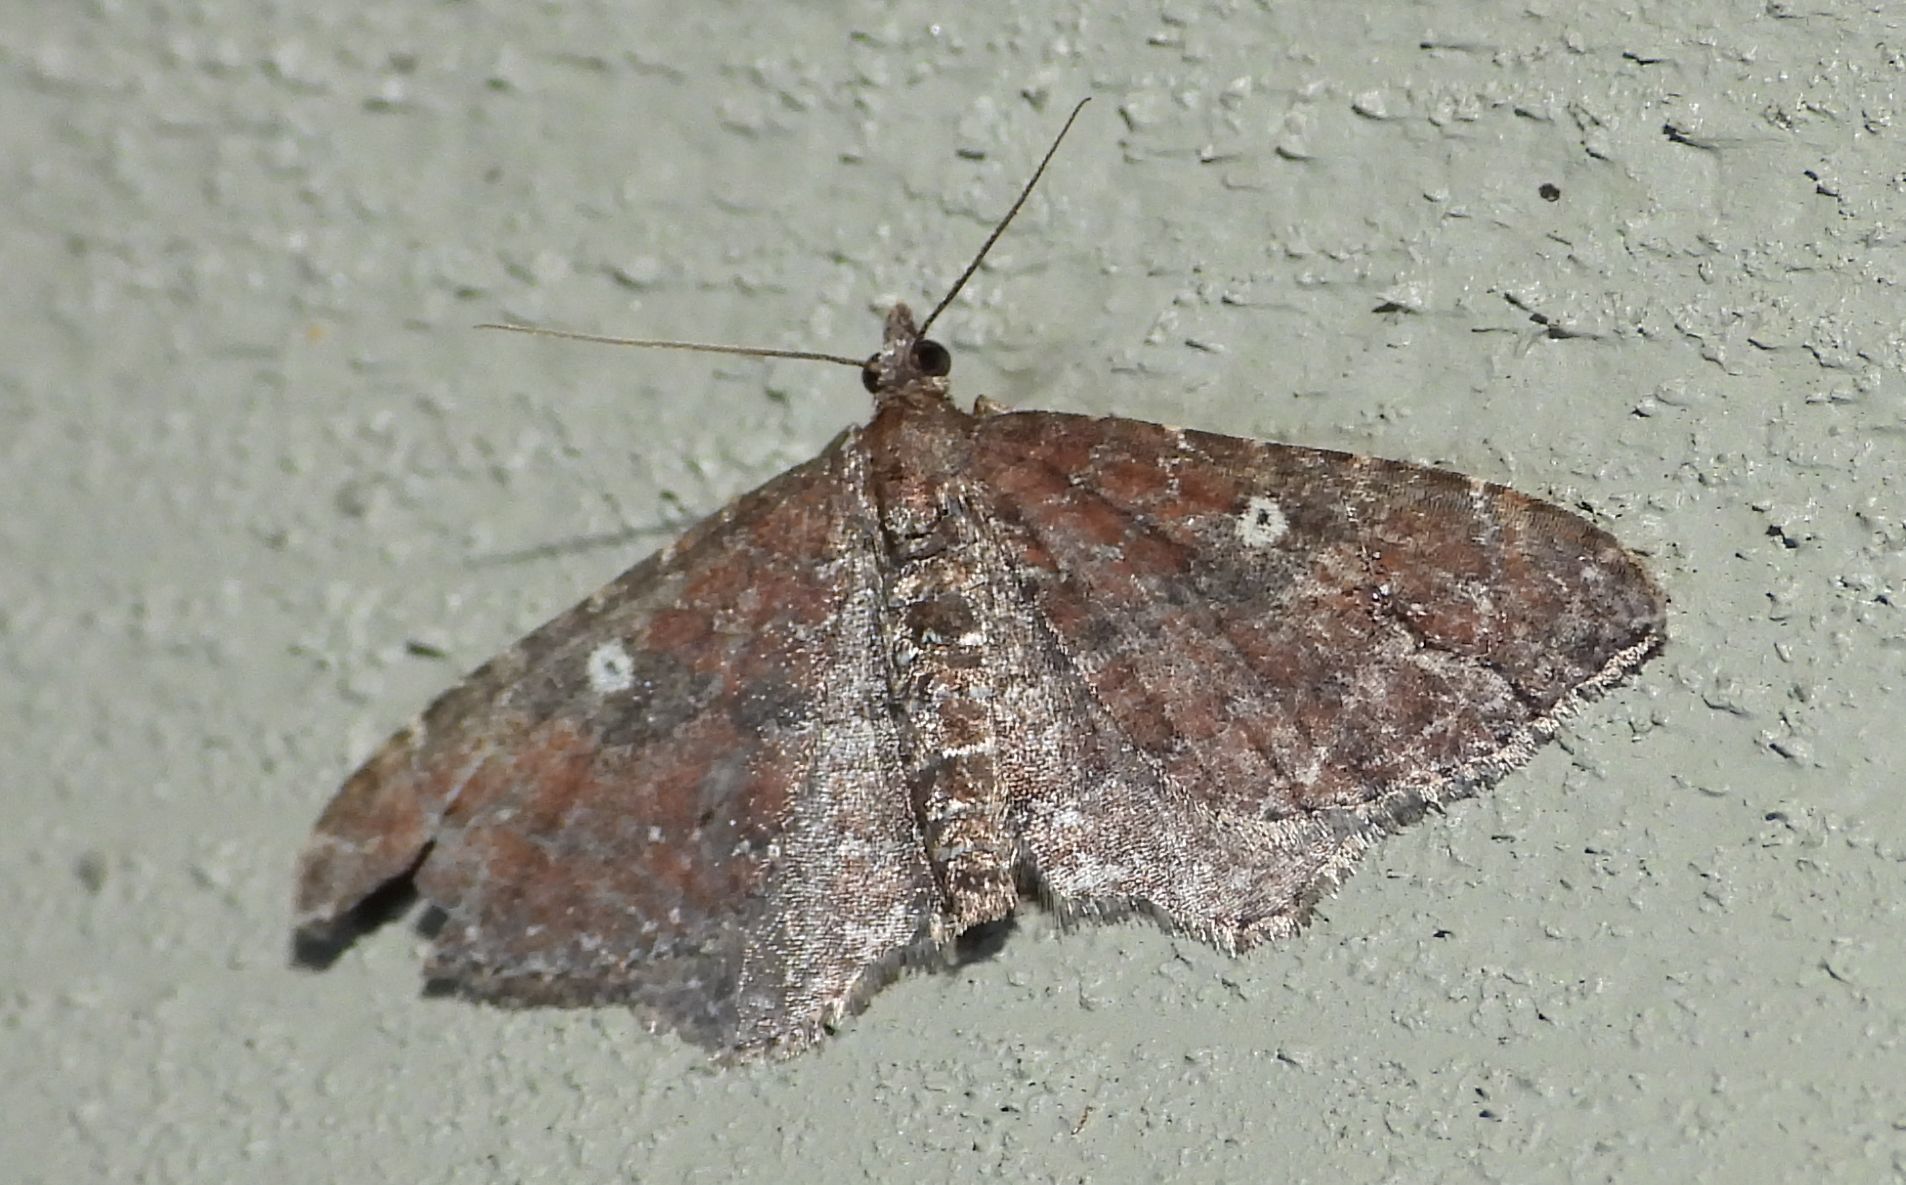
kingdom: Animalia
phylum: Arthropoda
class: Insecta
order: Lepidoptera
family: Geometridae
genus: Orthonama
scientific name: Orthonama obstipata
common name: The gem
